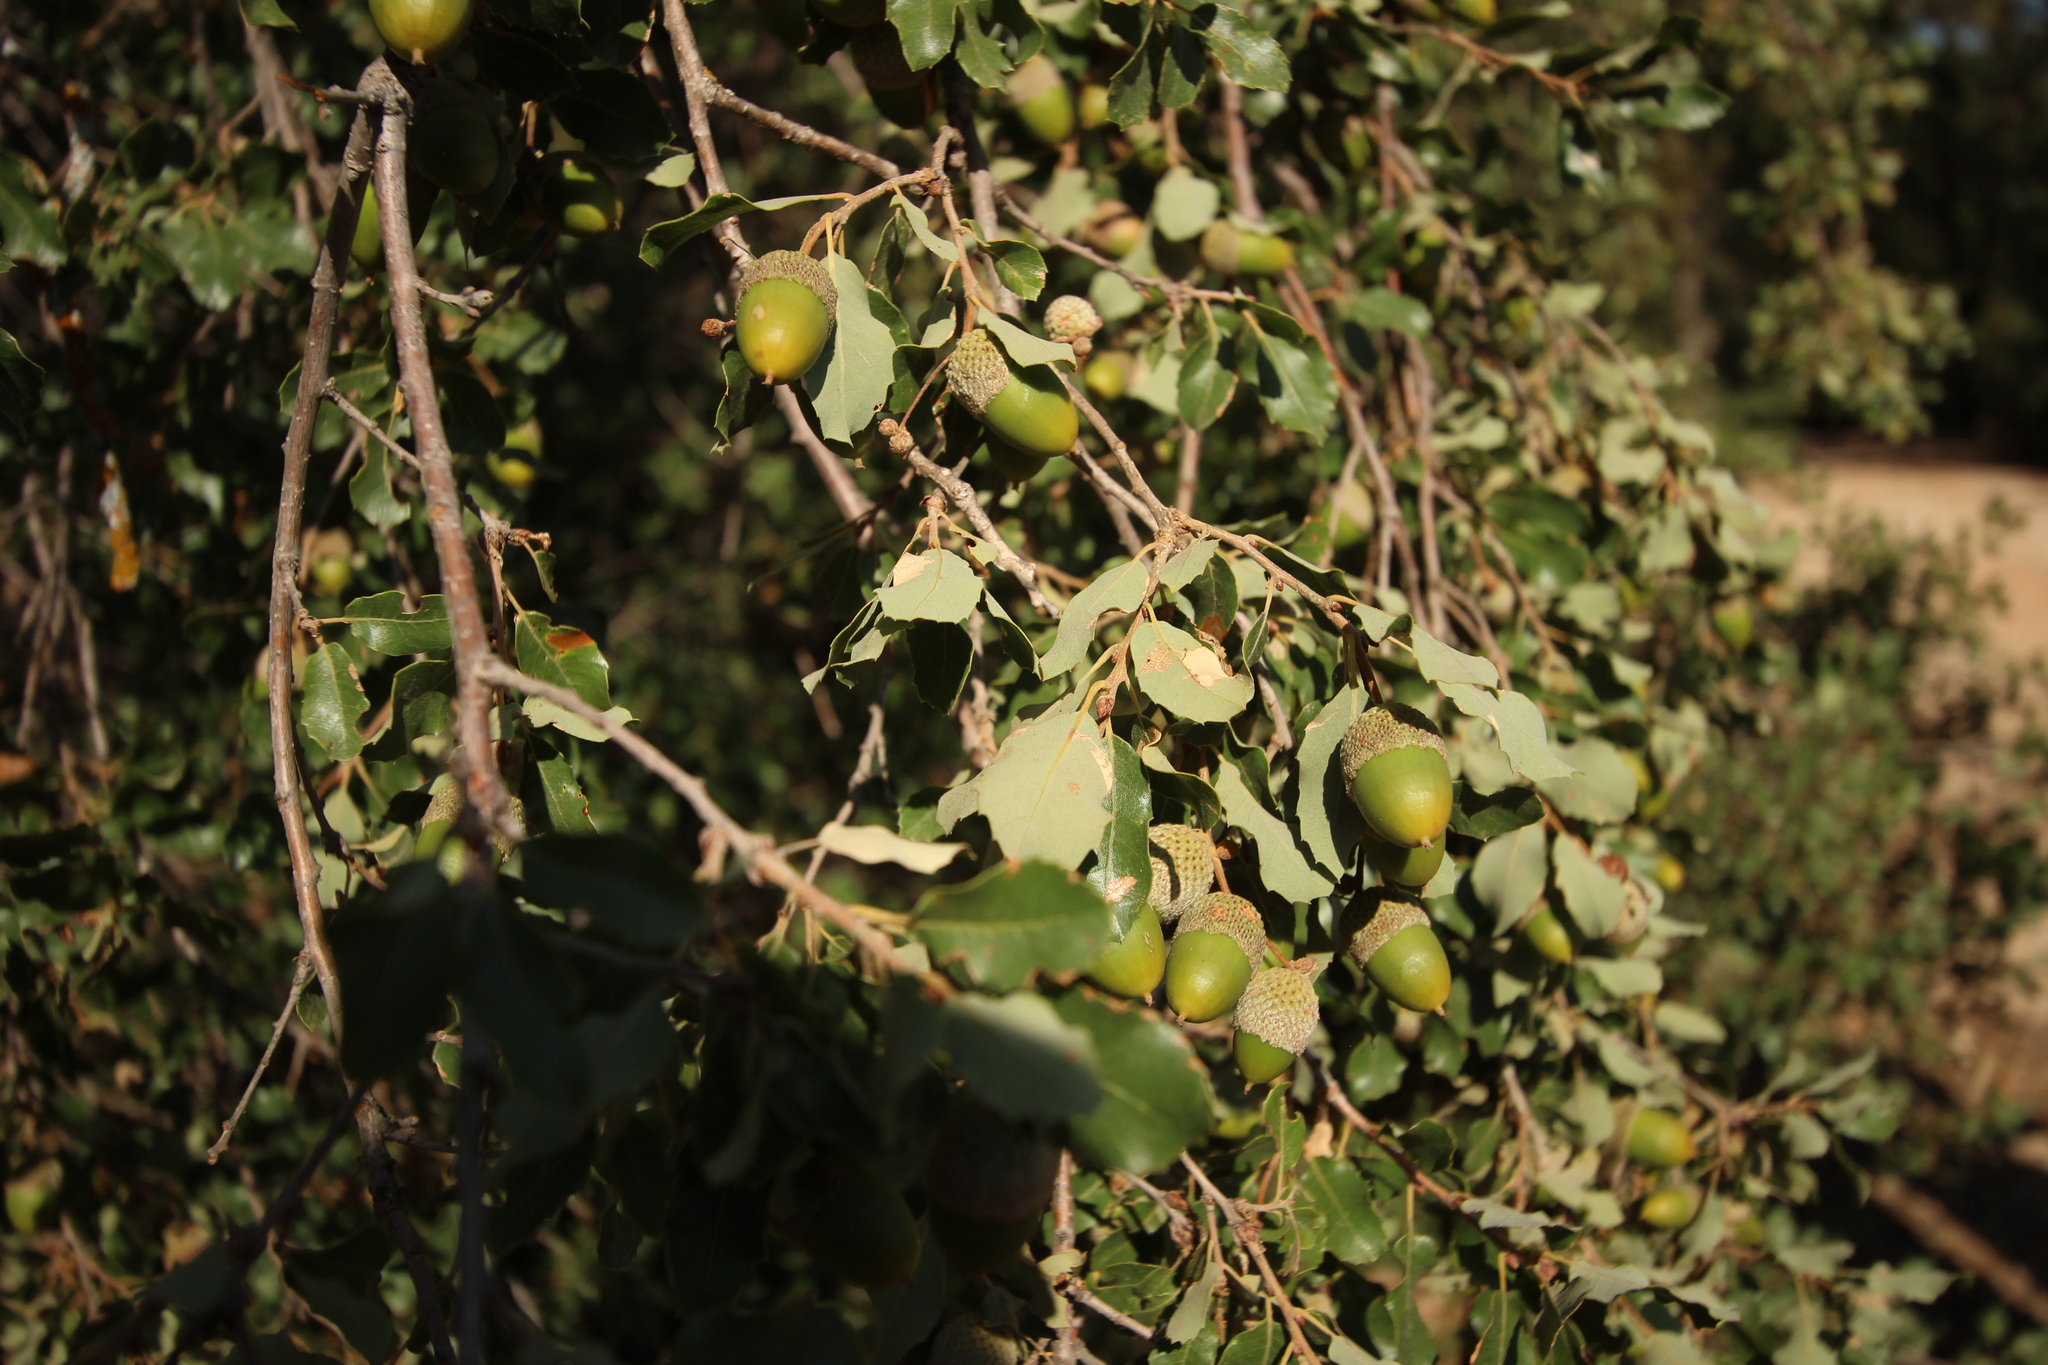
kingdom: Plantae
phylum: Tracheophyta
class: Magnoliopsida
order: Fagales
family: Fagaceae
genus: Quercus
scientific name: Quercus rotundifolia
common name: Holm oak
